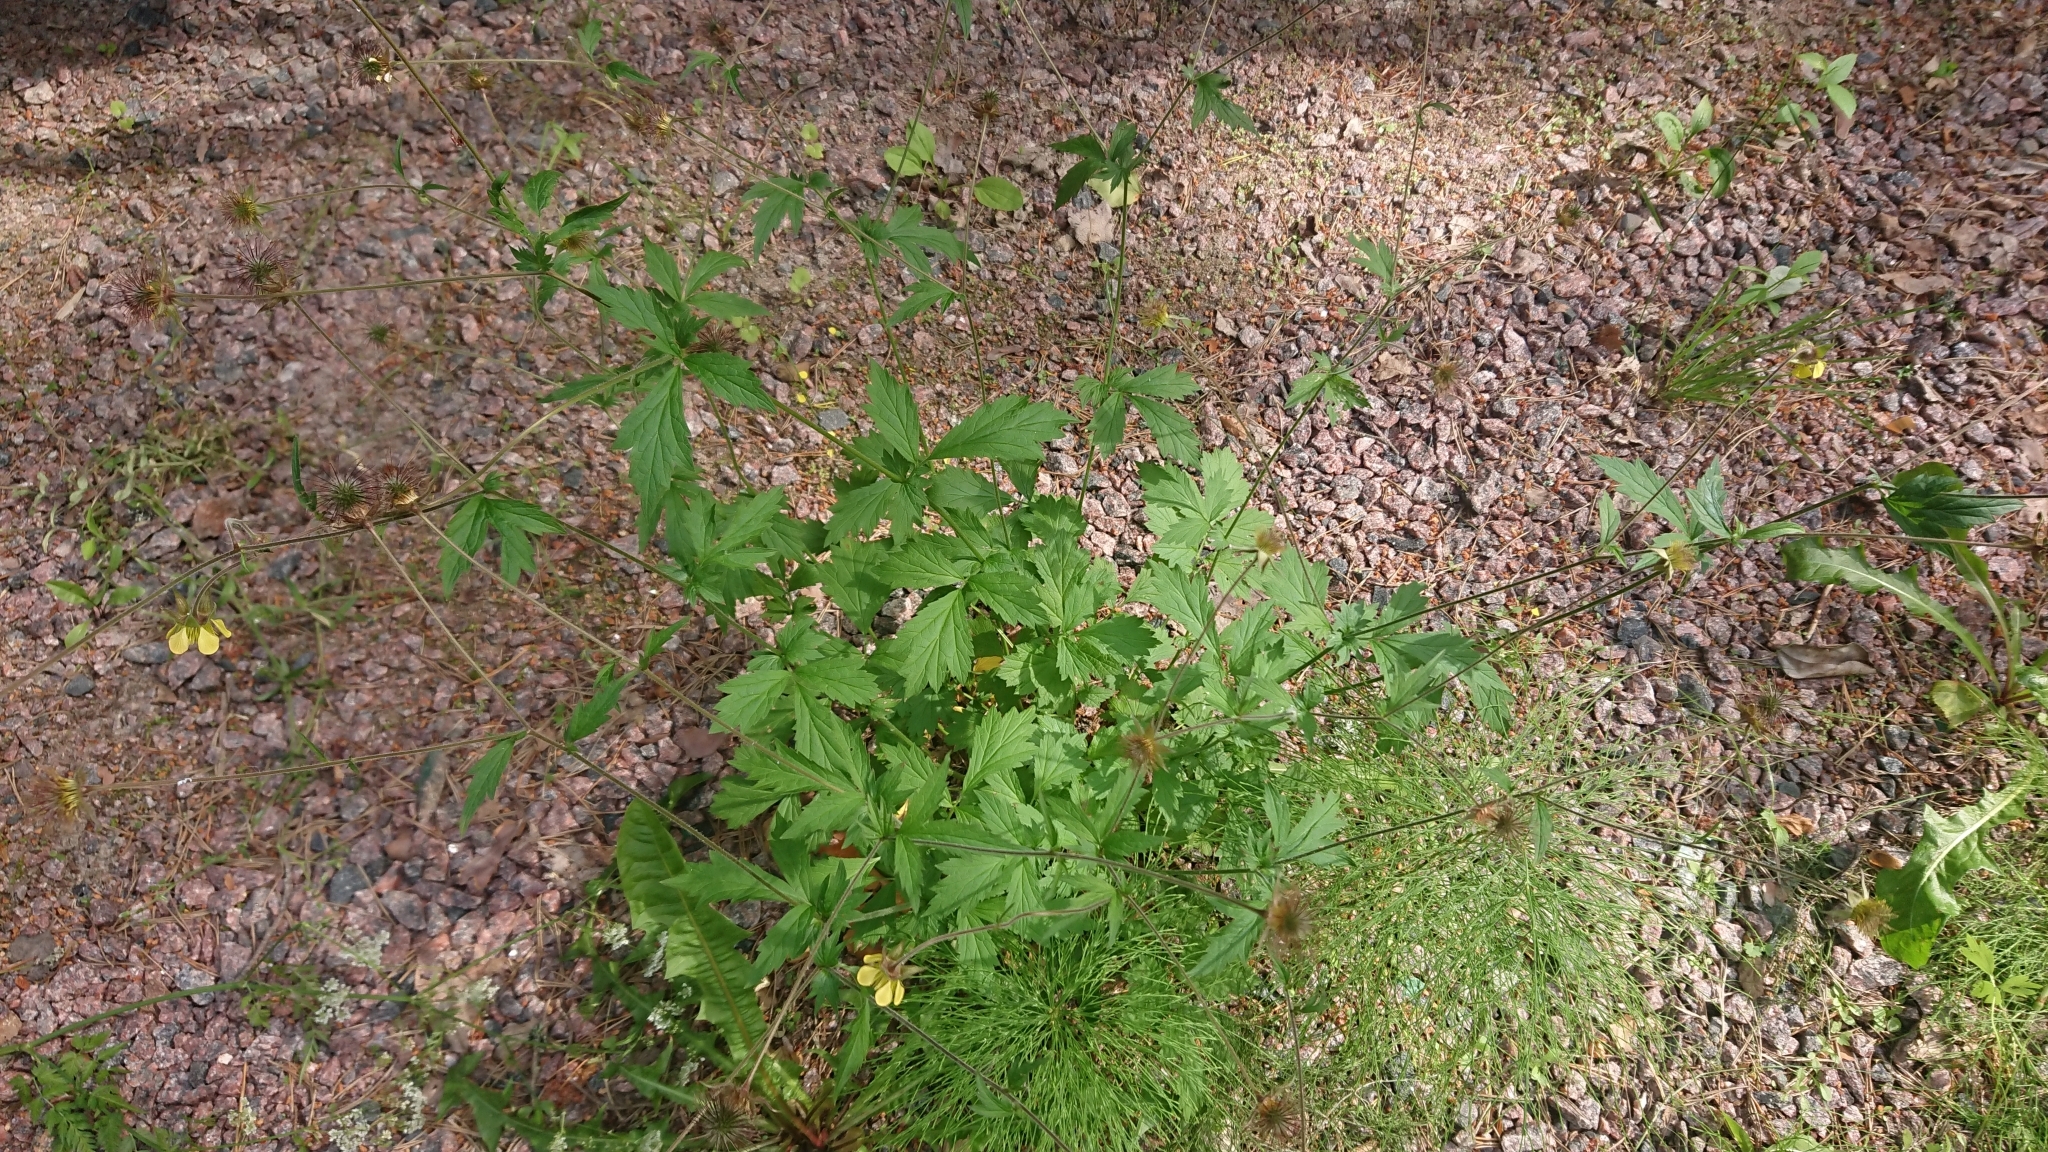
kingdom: Plantae
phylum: Tracheophyta
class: Magnoliopsida
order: Rosales
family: Rosaceae
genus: Geum
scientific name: Geum urbanum
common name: Wood avens
